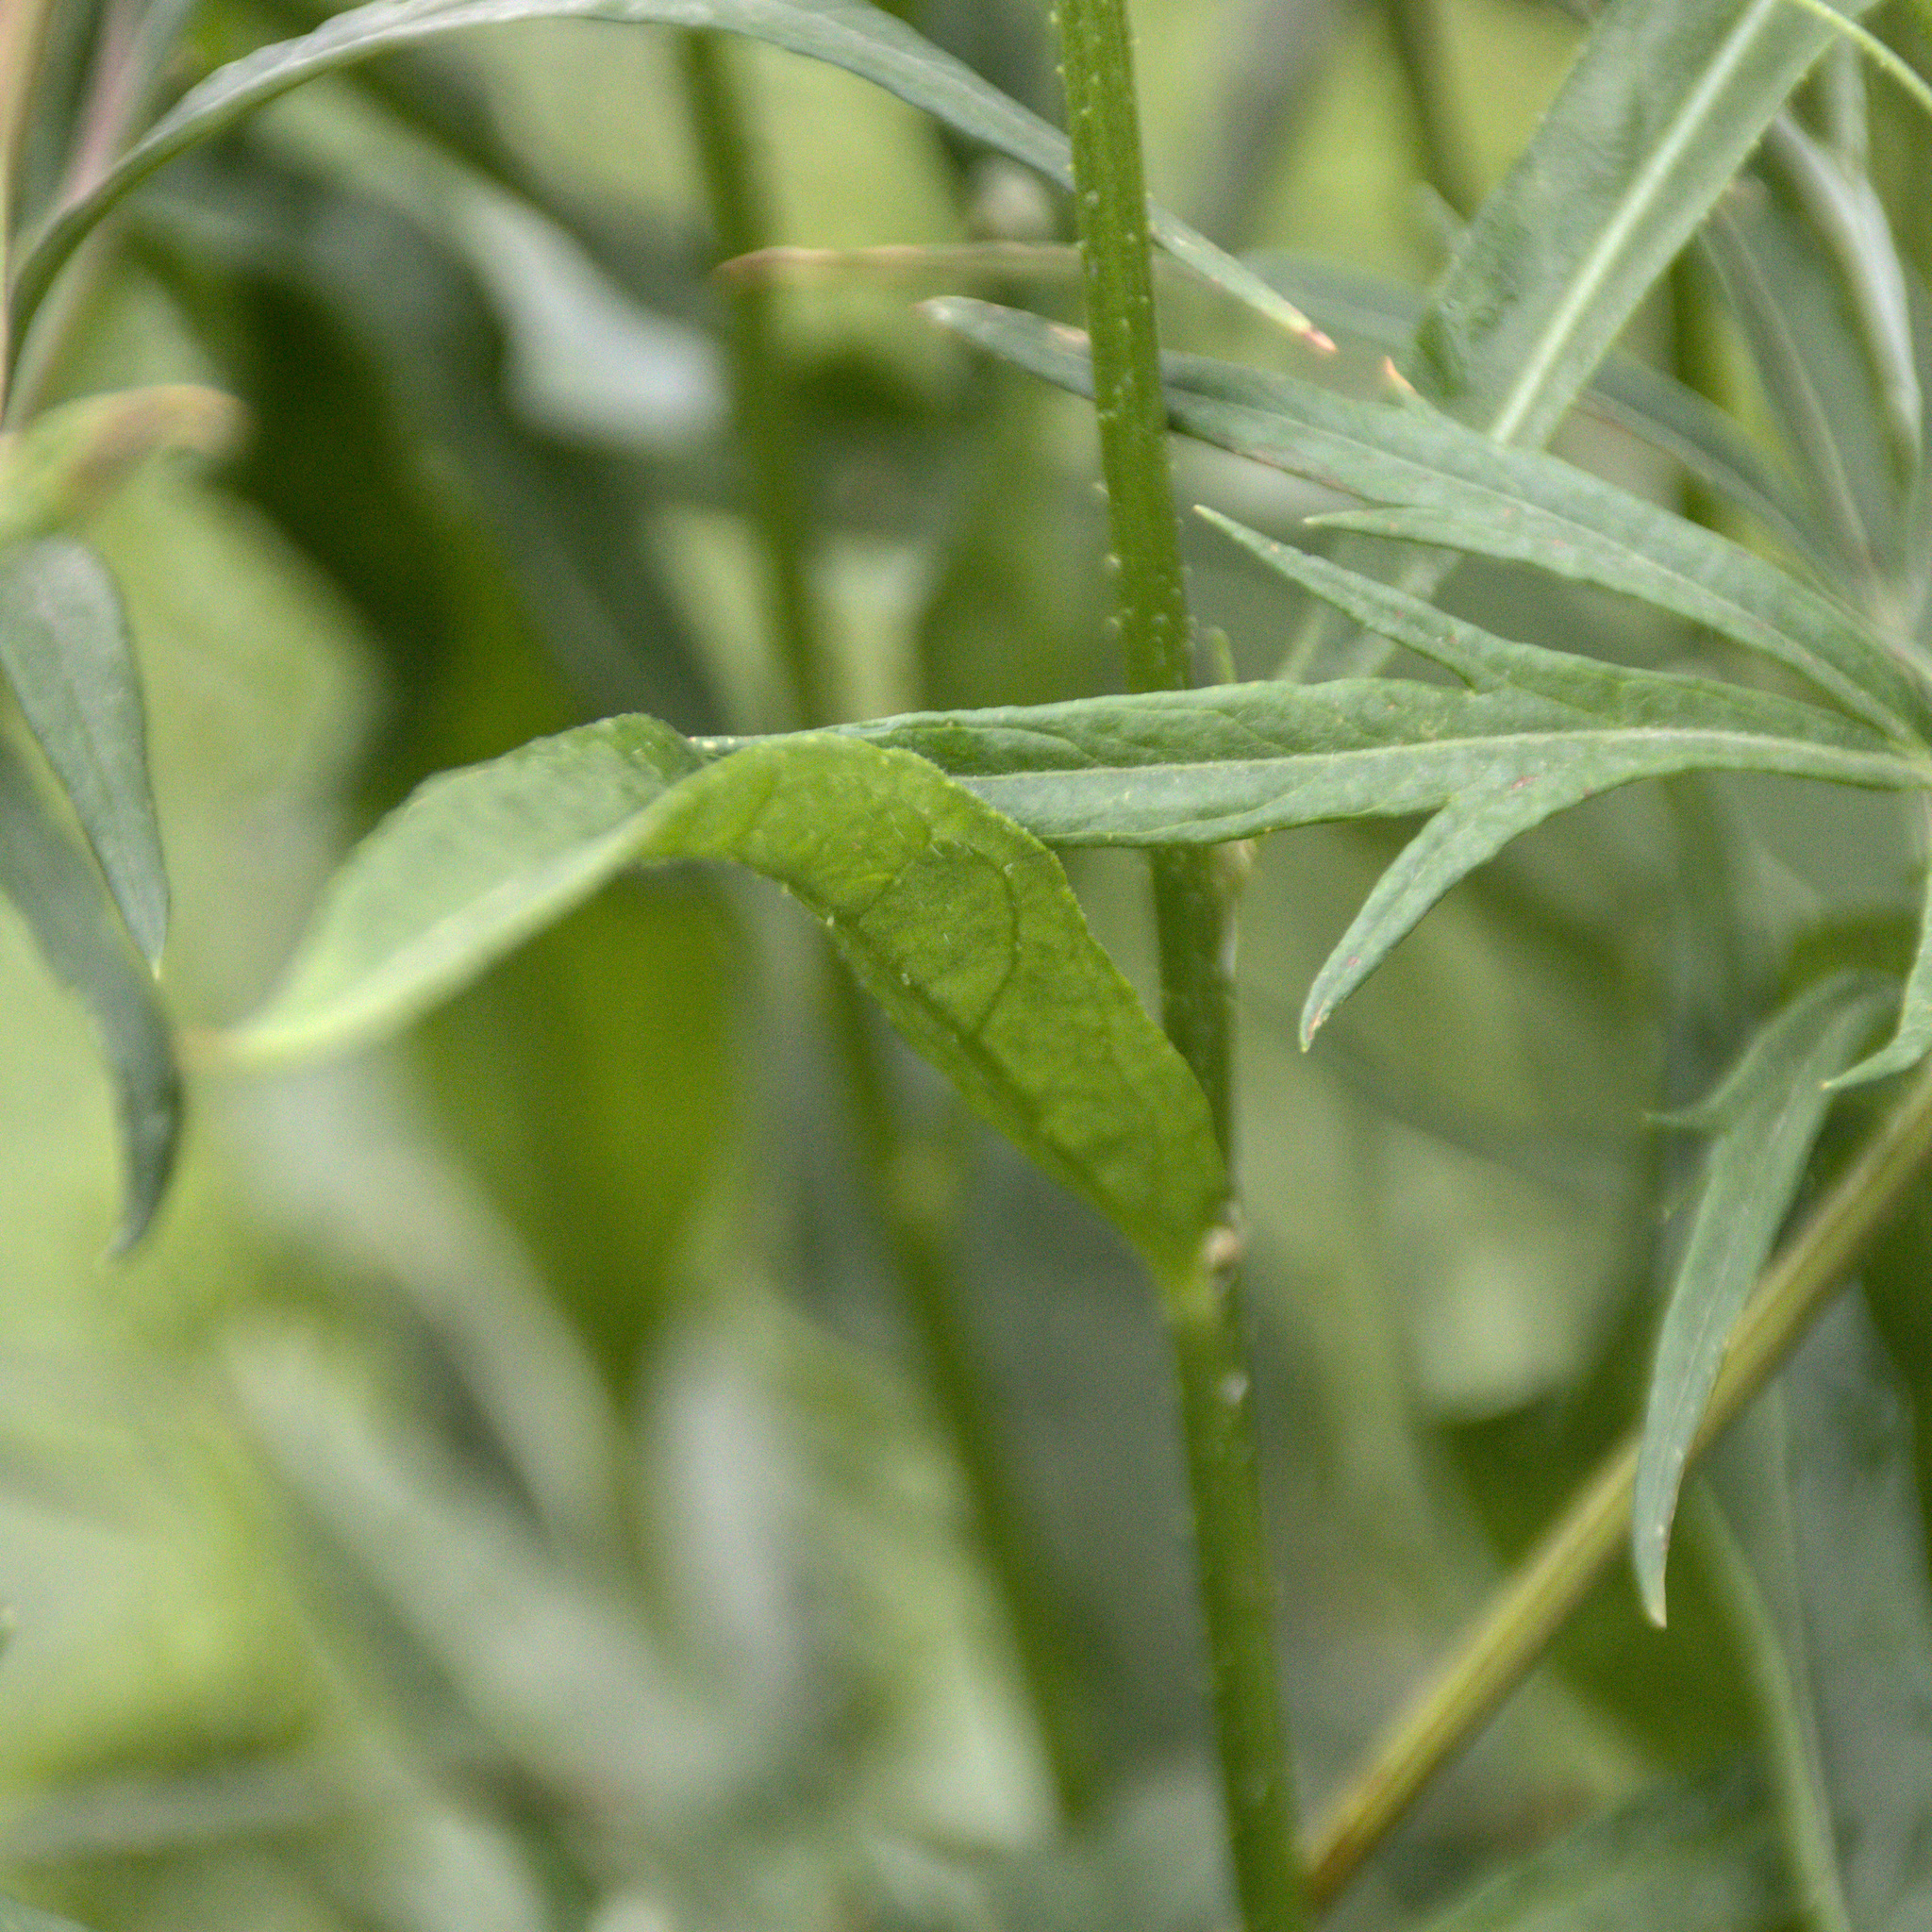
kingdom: Plantae
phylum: Tracheophyta
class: Magnoliopsida
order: Brassicales
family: Brassicaceae
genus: Bunias
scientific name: Bunias orientalis
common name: Warty-cabbage
